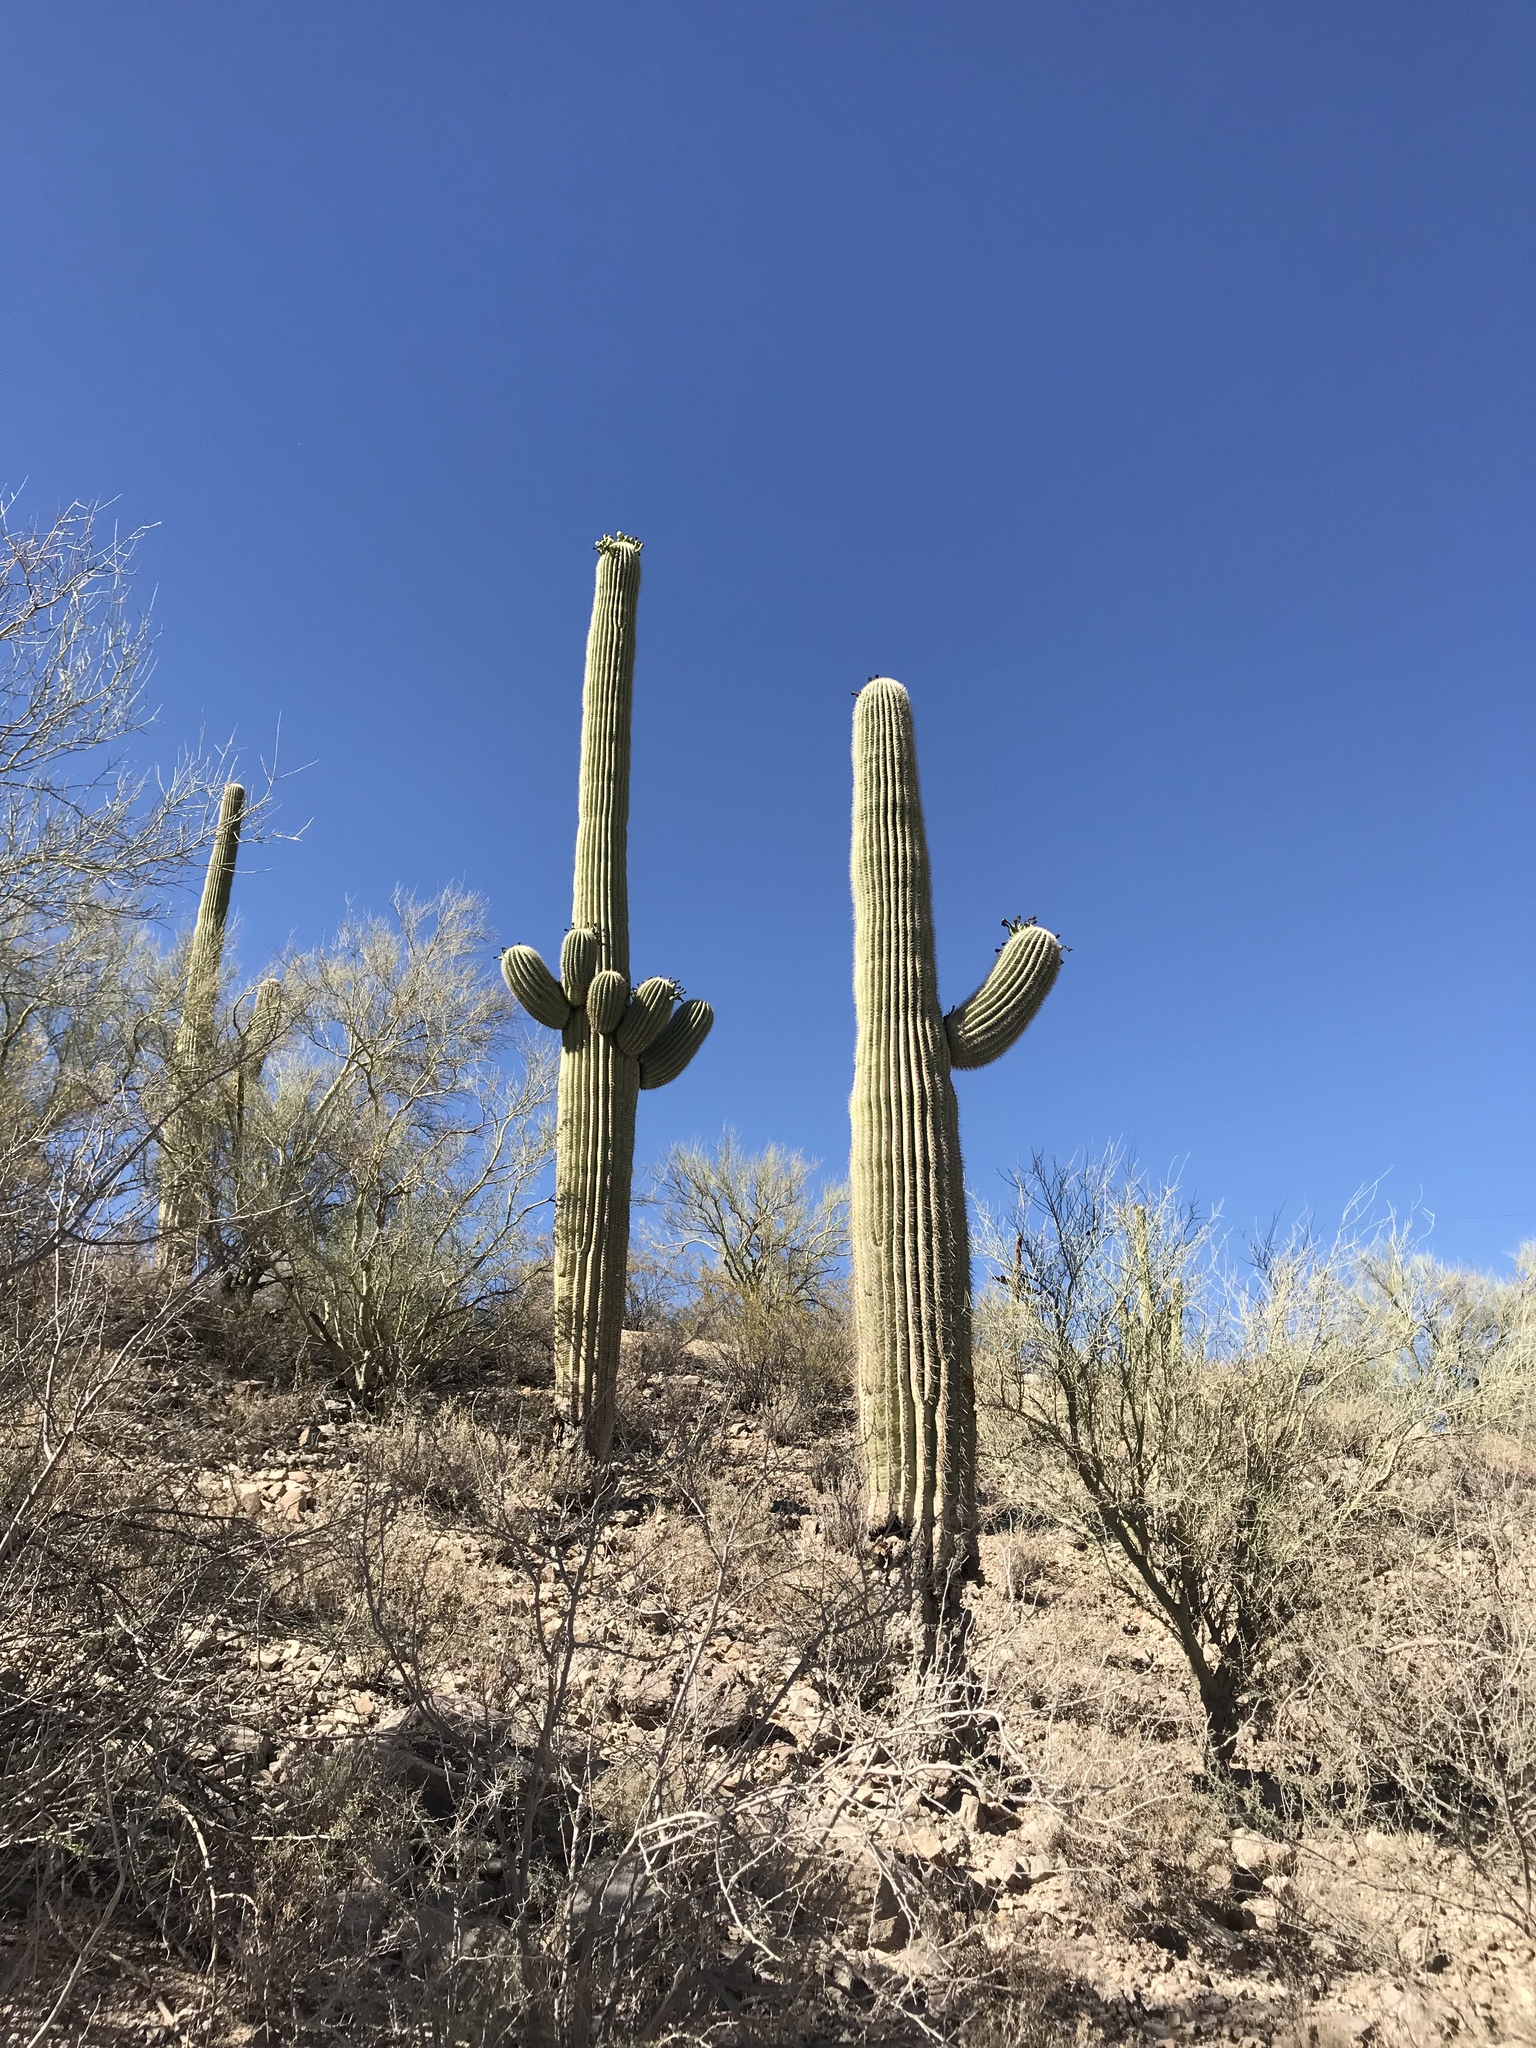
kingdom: Plantae
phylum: Tracheophyta
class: Magnoliopsida
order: Caryophyllales
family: Cactaceae
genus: Carnegiea
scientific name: Carnegiea gigantea
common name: Saguaro
